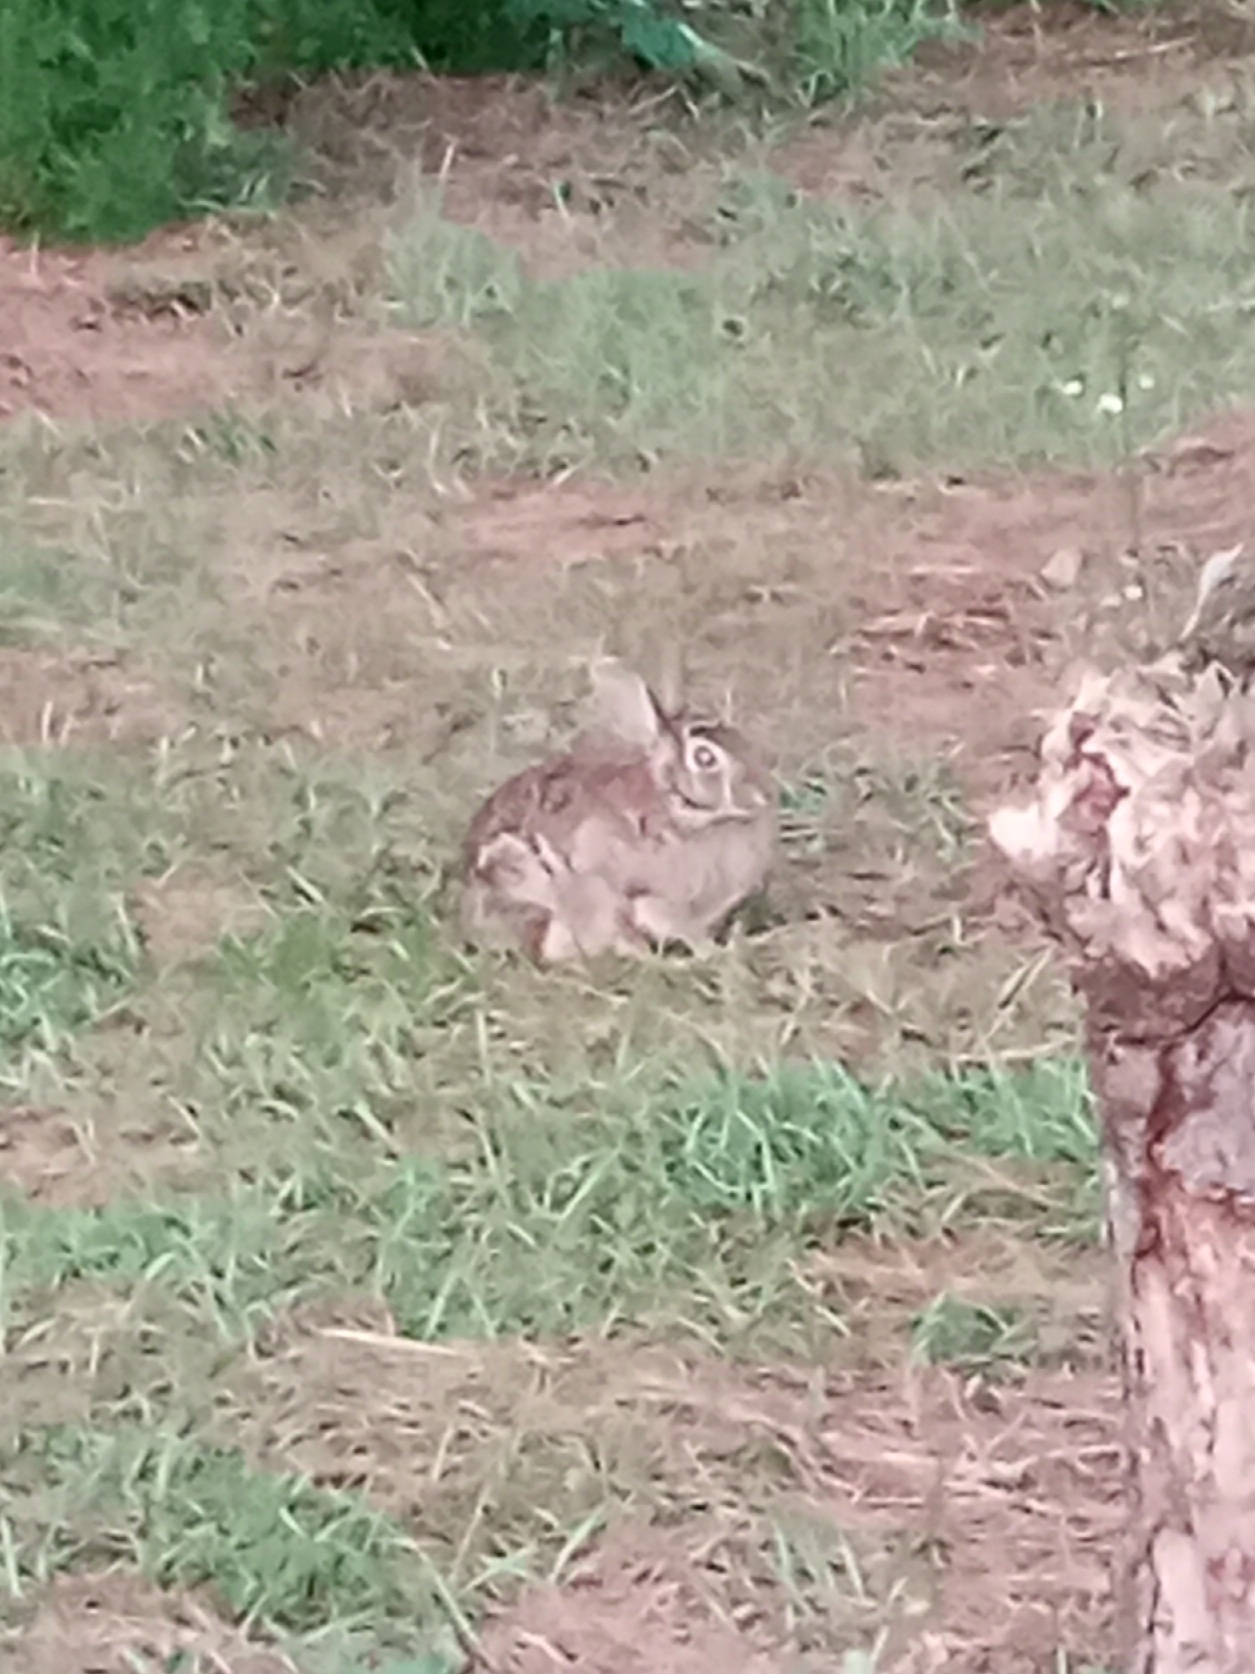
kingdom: Animalia
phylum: Chordata
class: Mammalia
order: Lagomorpha
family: Leporidae
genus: Sylvilagus
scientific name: Sylvilagus floridanus
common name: Eastern cottontail
